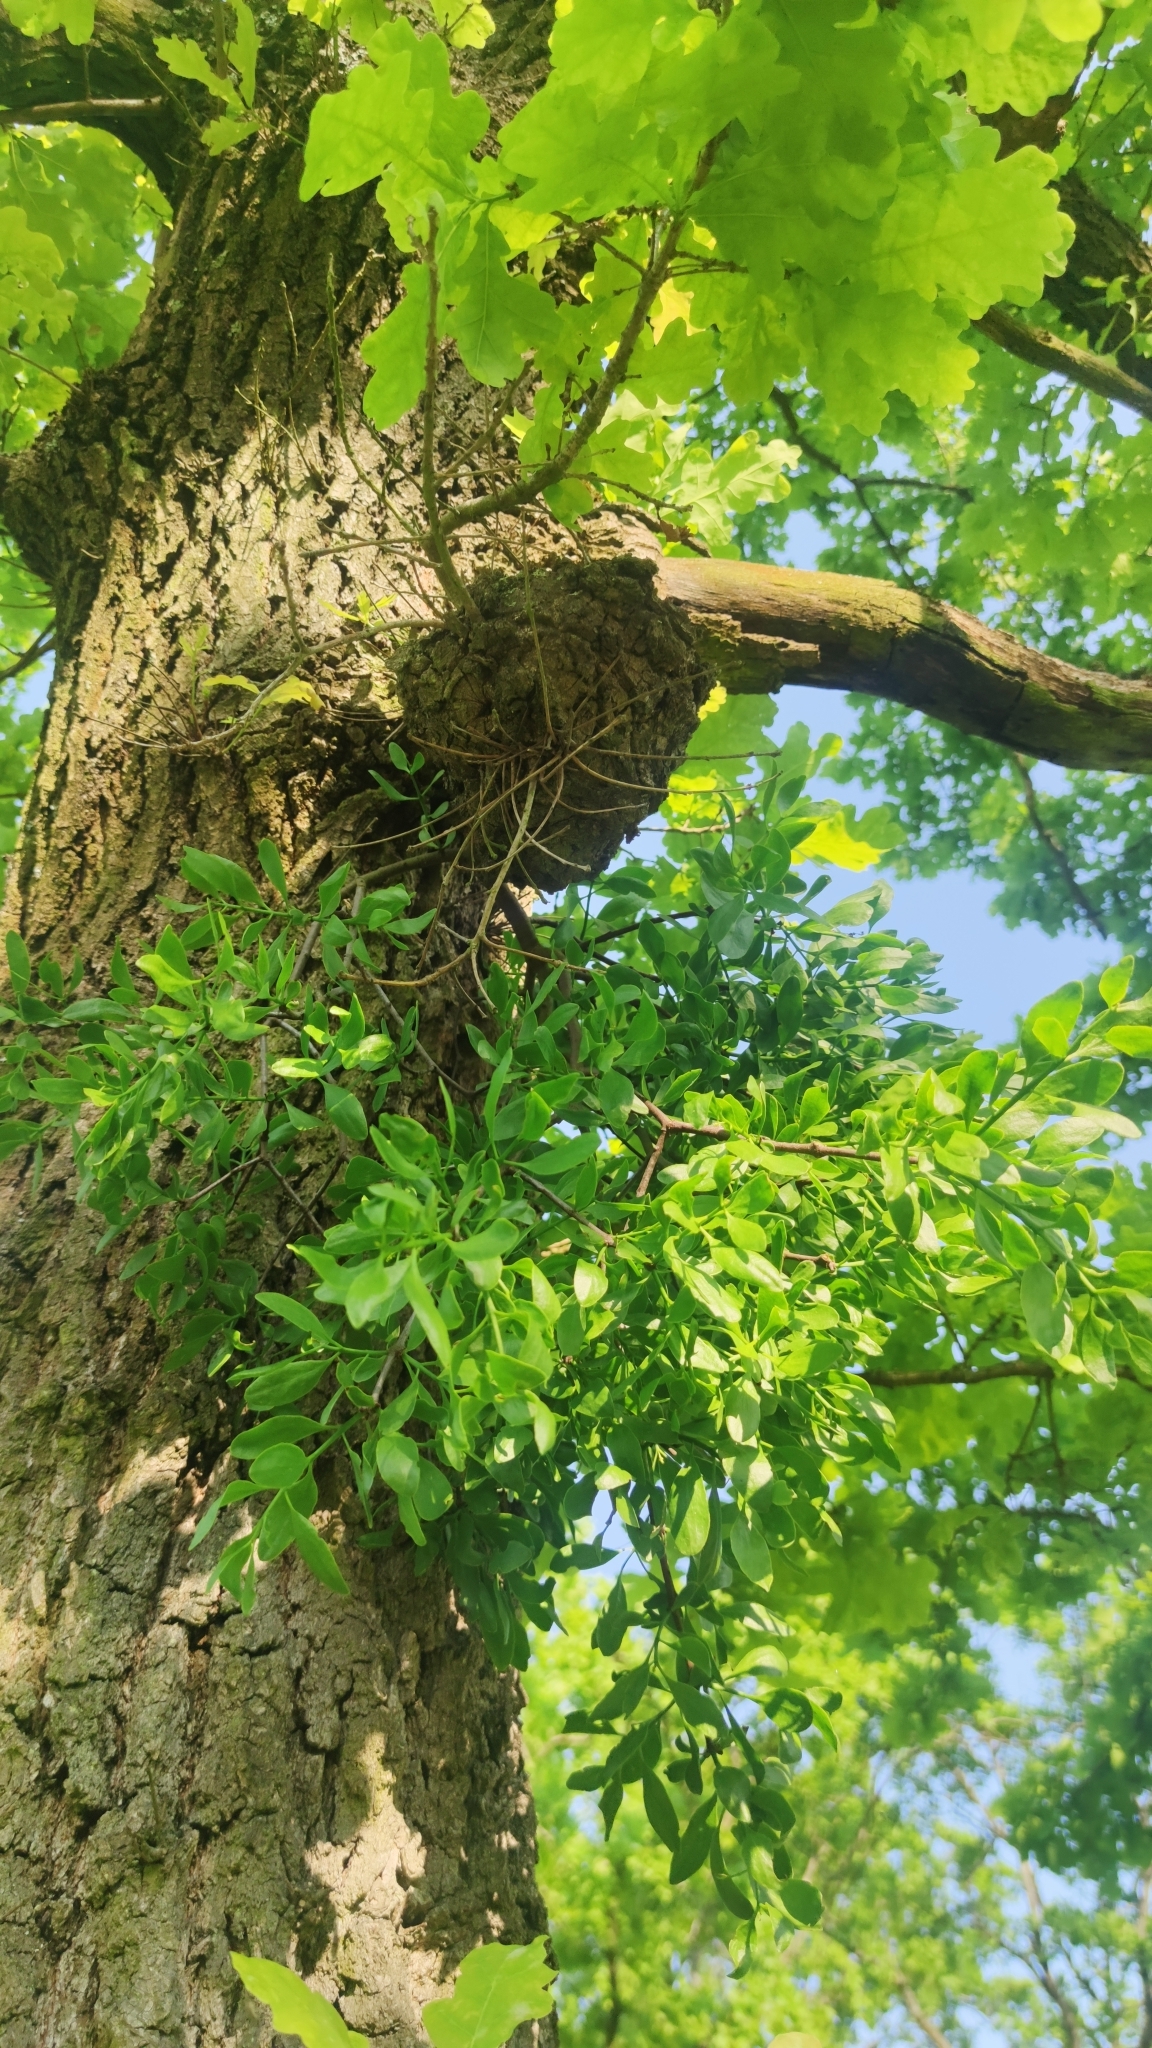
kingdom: Plantae
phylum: Tracheophyta
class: Magnoliopsida
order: Santalales
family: Loranthaceae
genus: Loranthus
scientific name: Loranthus europaeus
